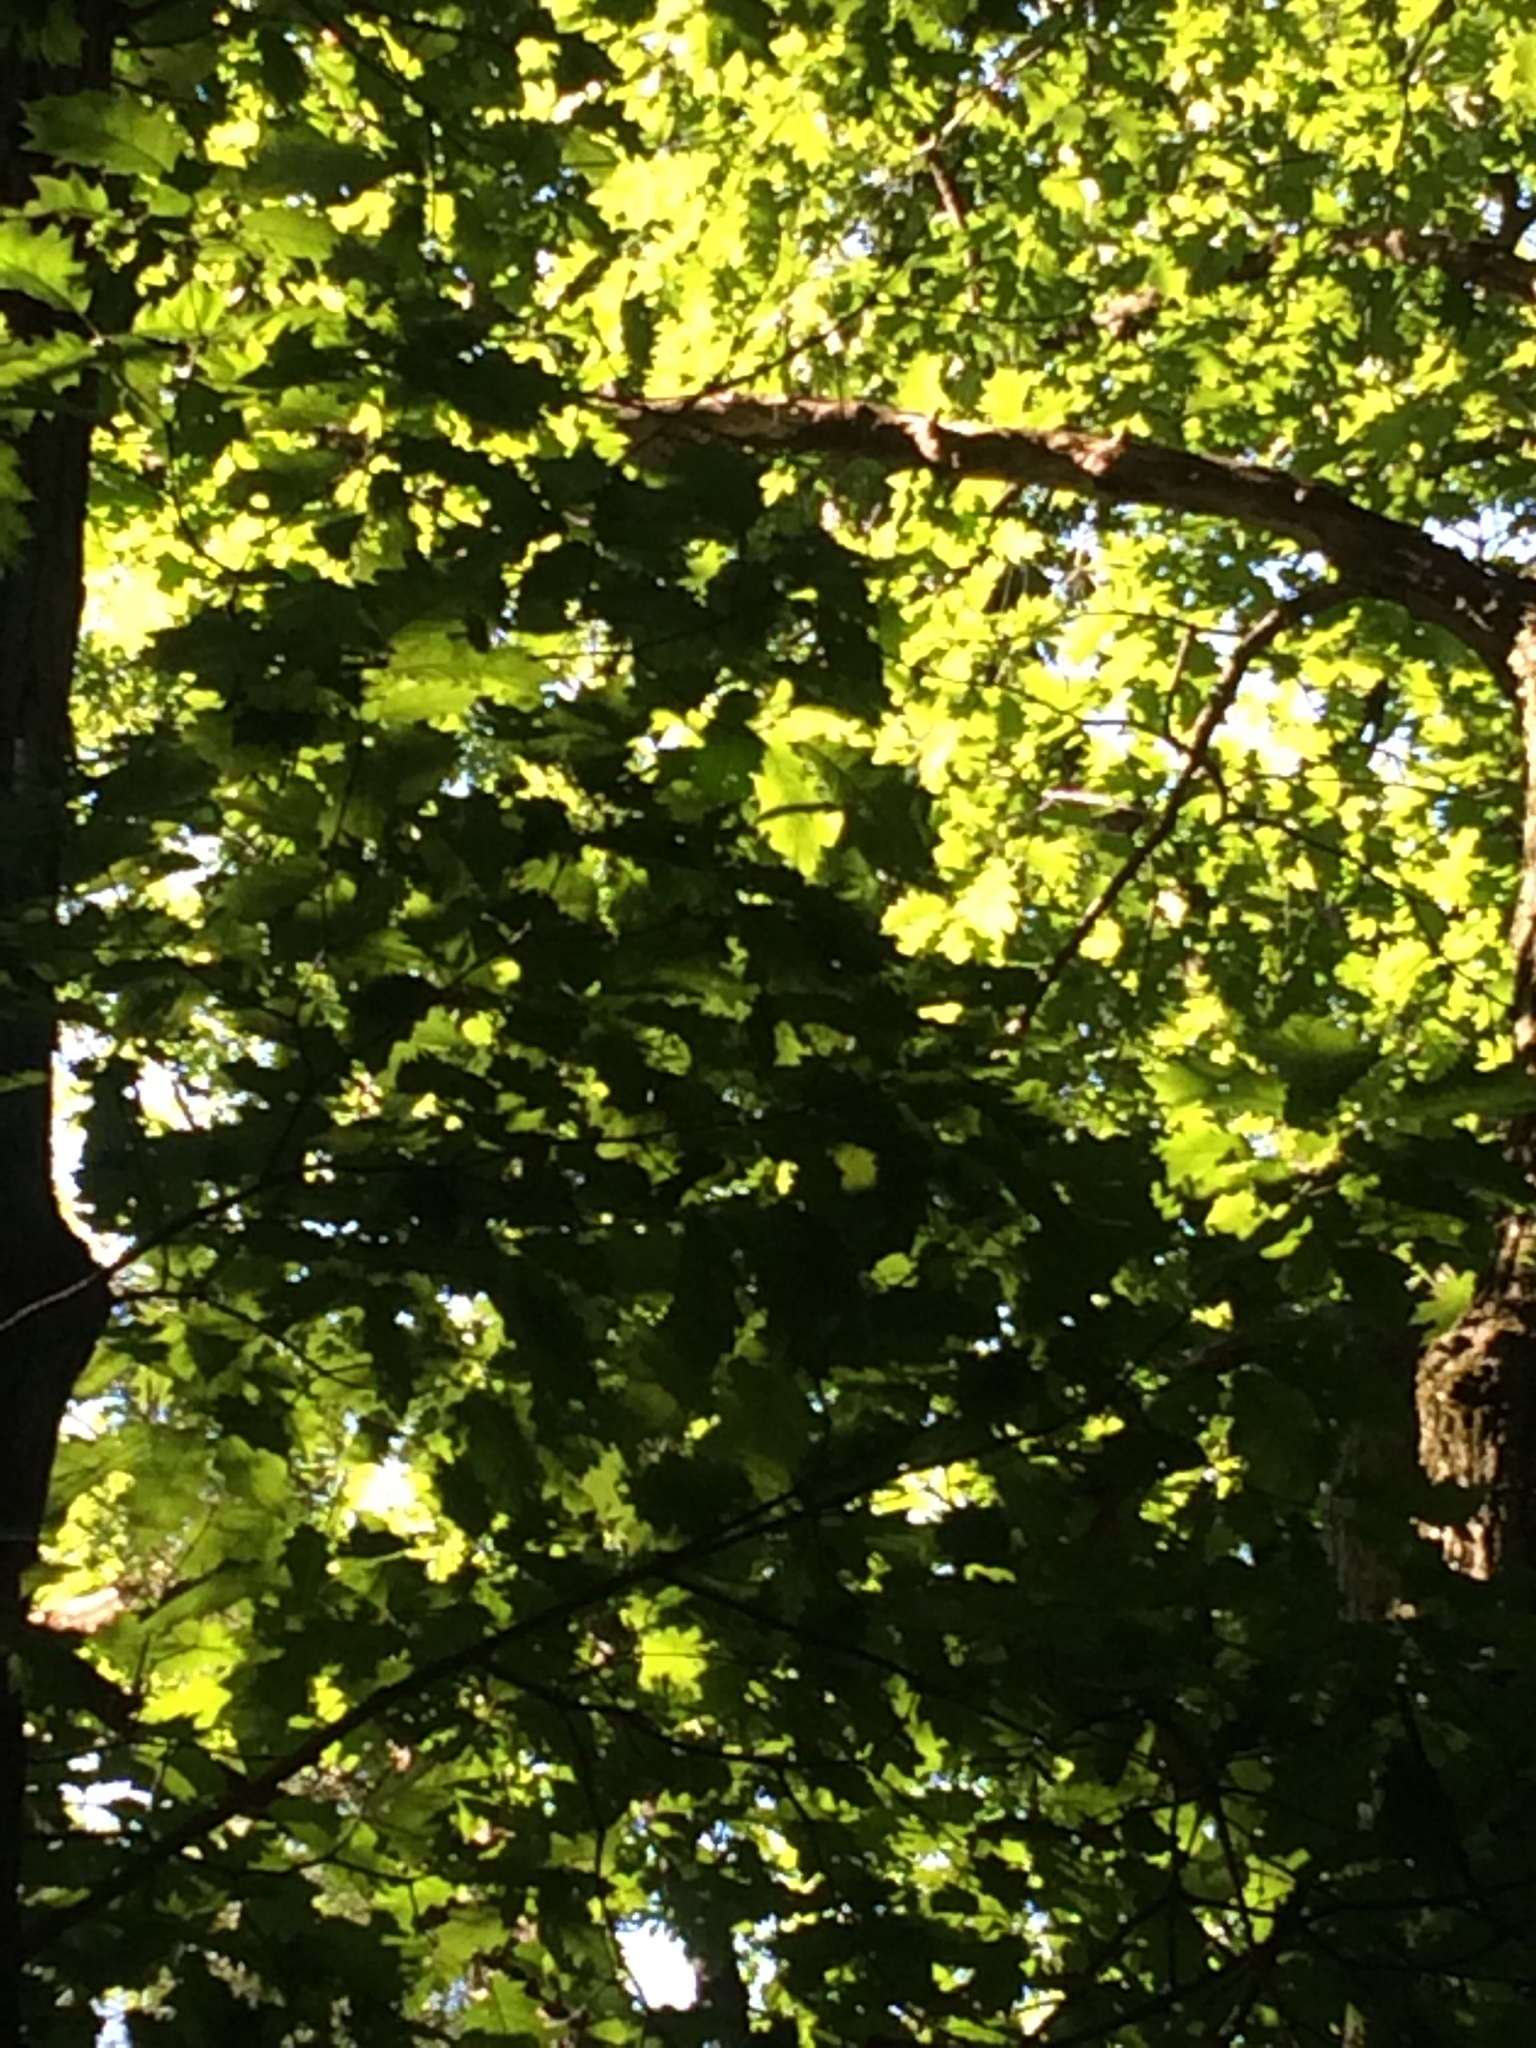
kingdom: Plantae
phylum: Tracheophyta
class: Magnoliopsida
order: Fagales
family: Fagaceae
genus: Quercus
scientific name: Quercus rubra
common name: Red oak
